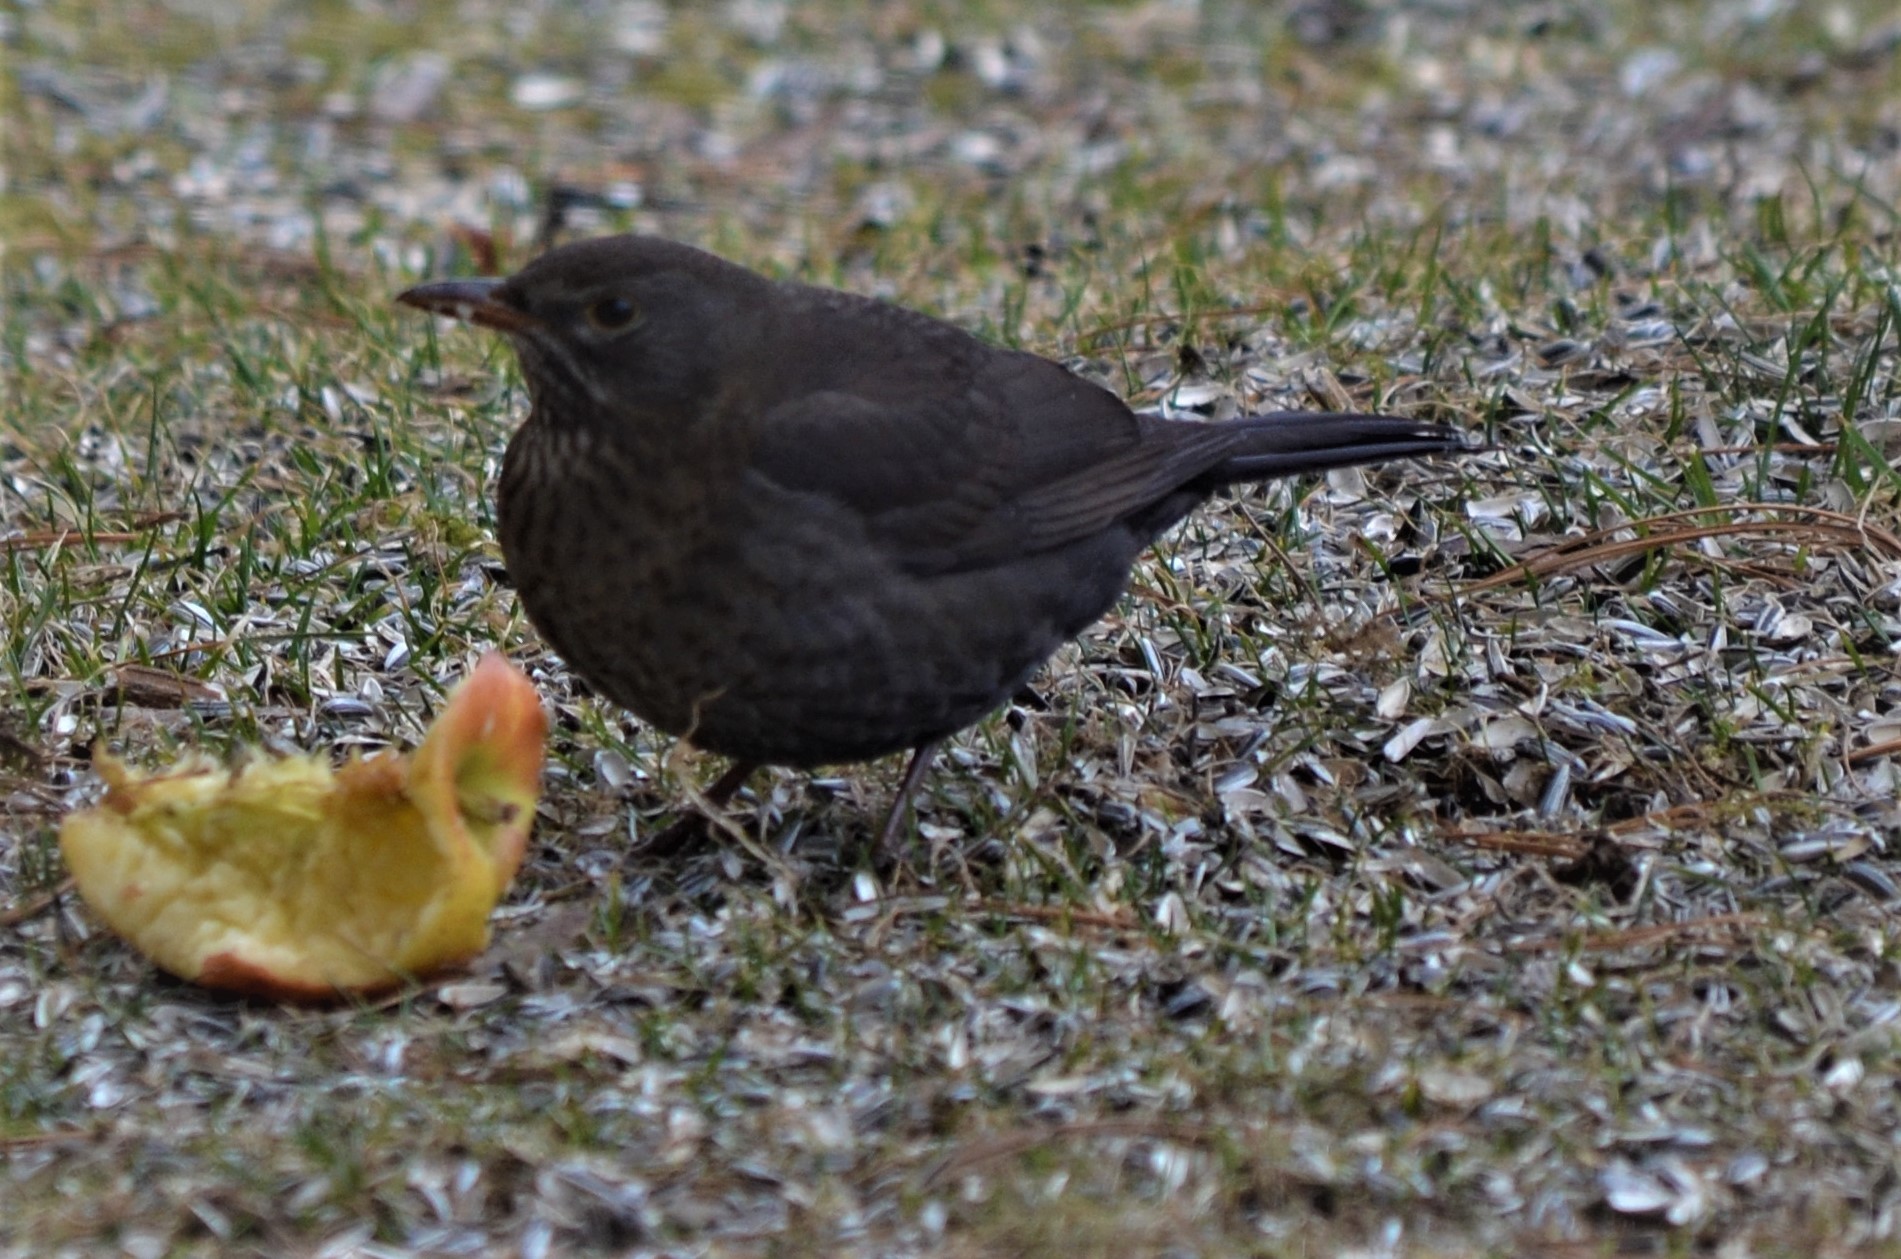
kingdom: Animalia
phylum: Chordata
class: Aves
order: Passeriformes
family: Turdidae
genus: Turdus
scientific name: Turdus merula
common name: Common blackbird
